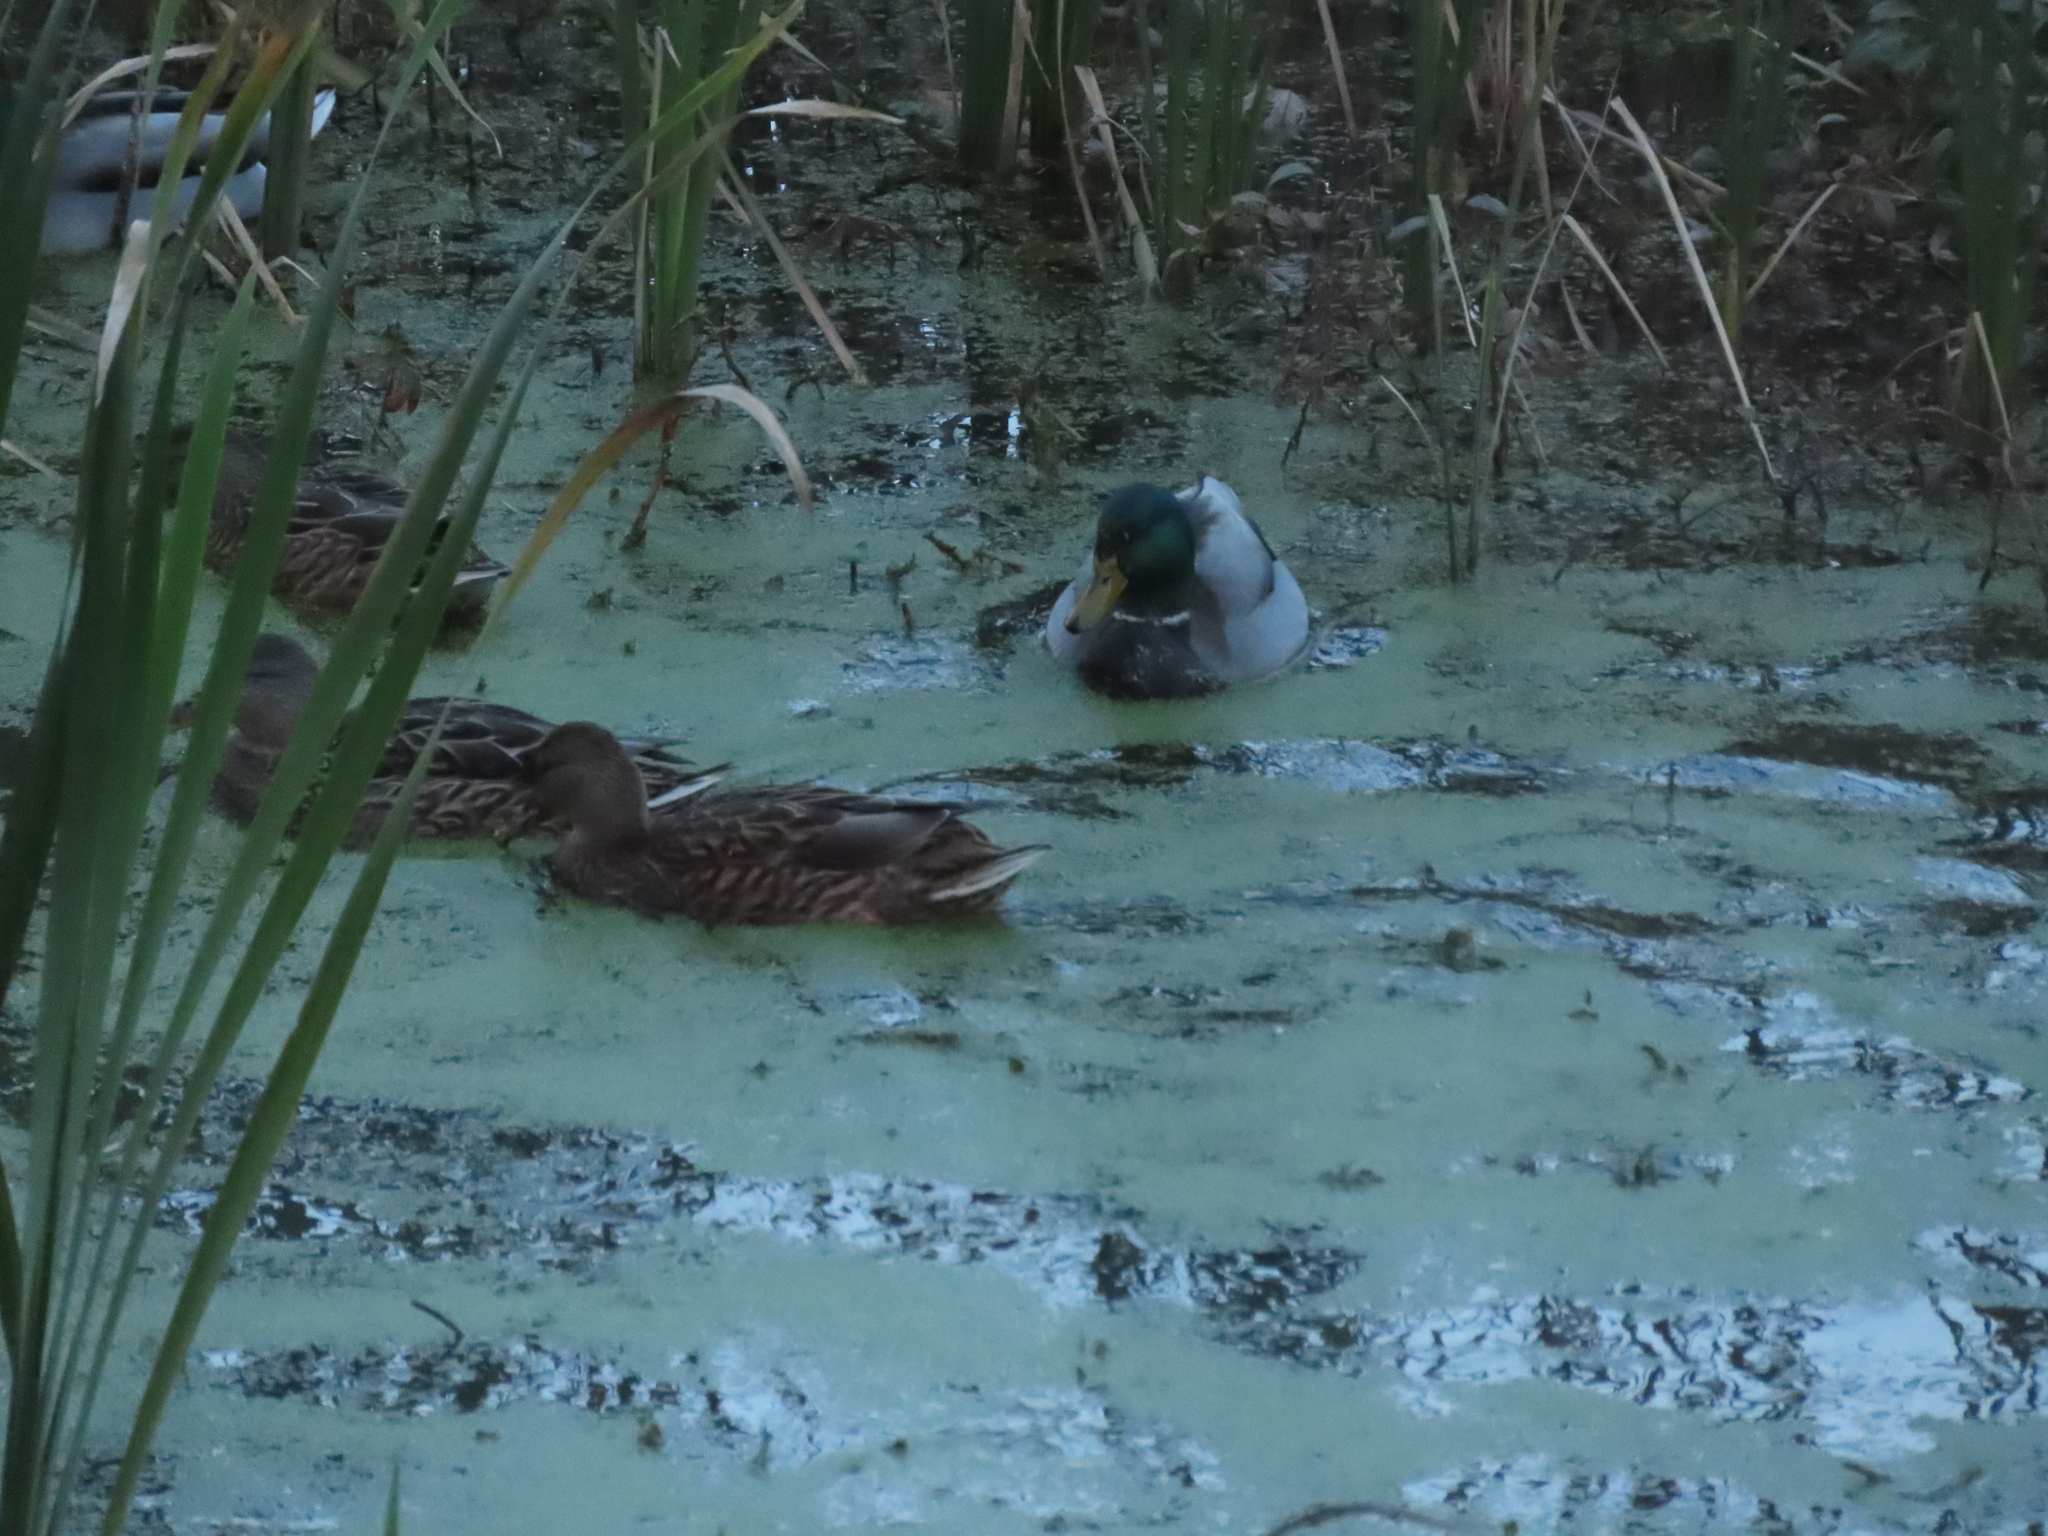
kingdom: Animalia
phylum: Chordata
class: Aves
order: Anseriformes
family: Anatidae
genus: Anas
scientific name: Anas platyrhynchos
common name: Mallard
